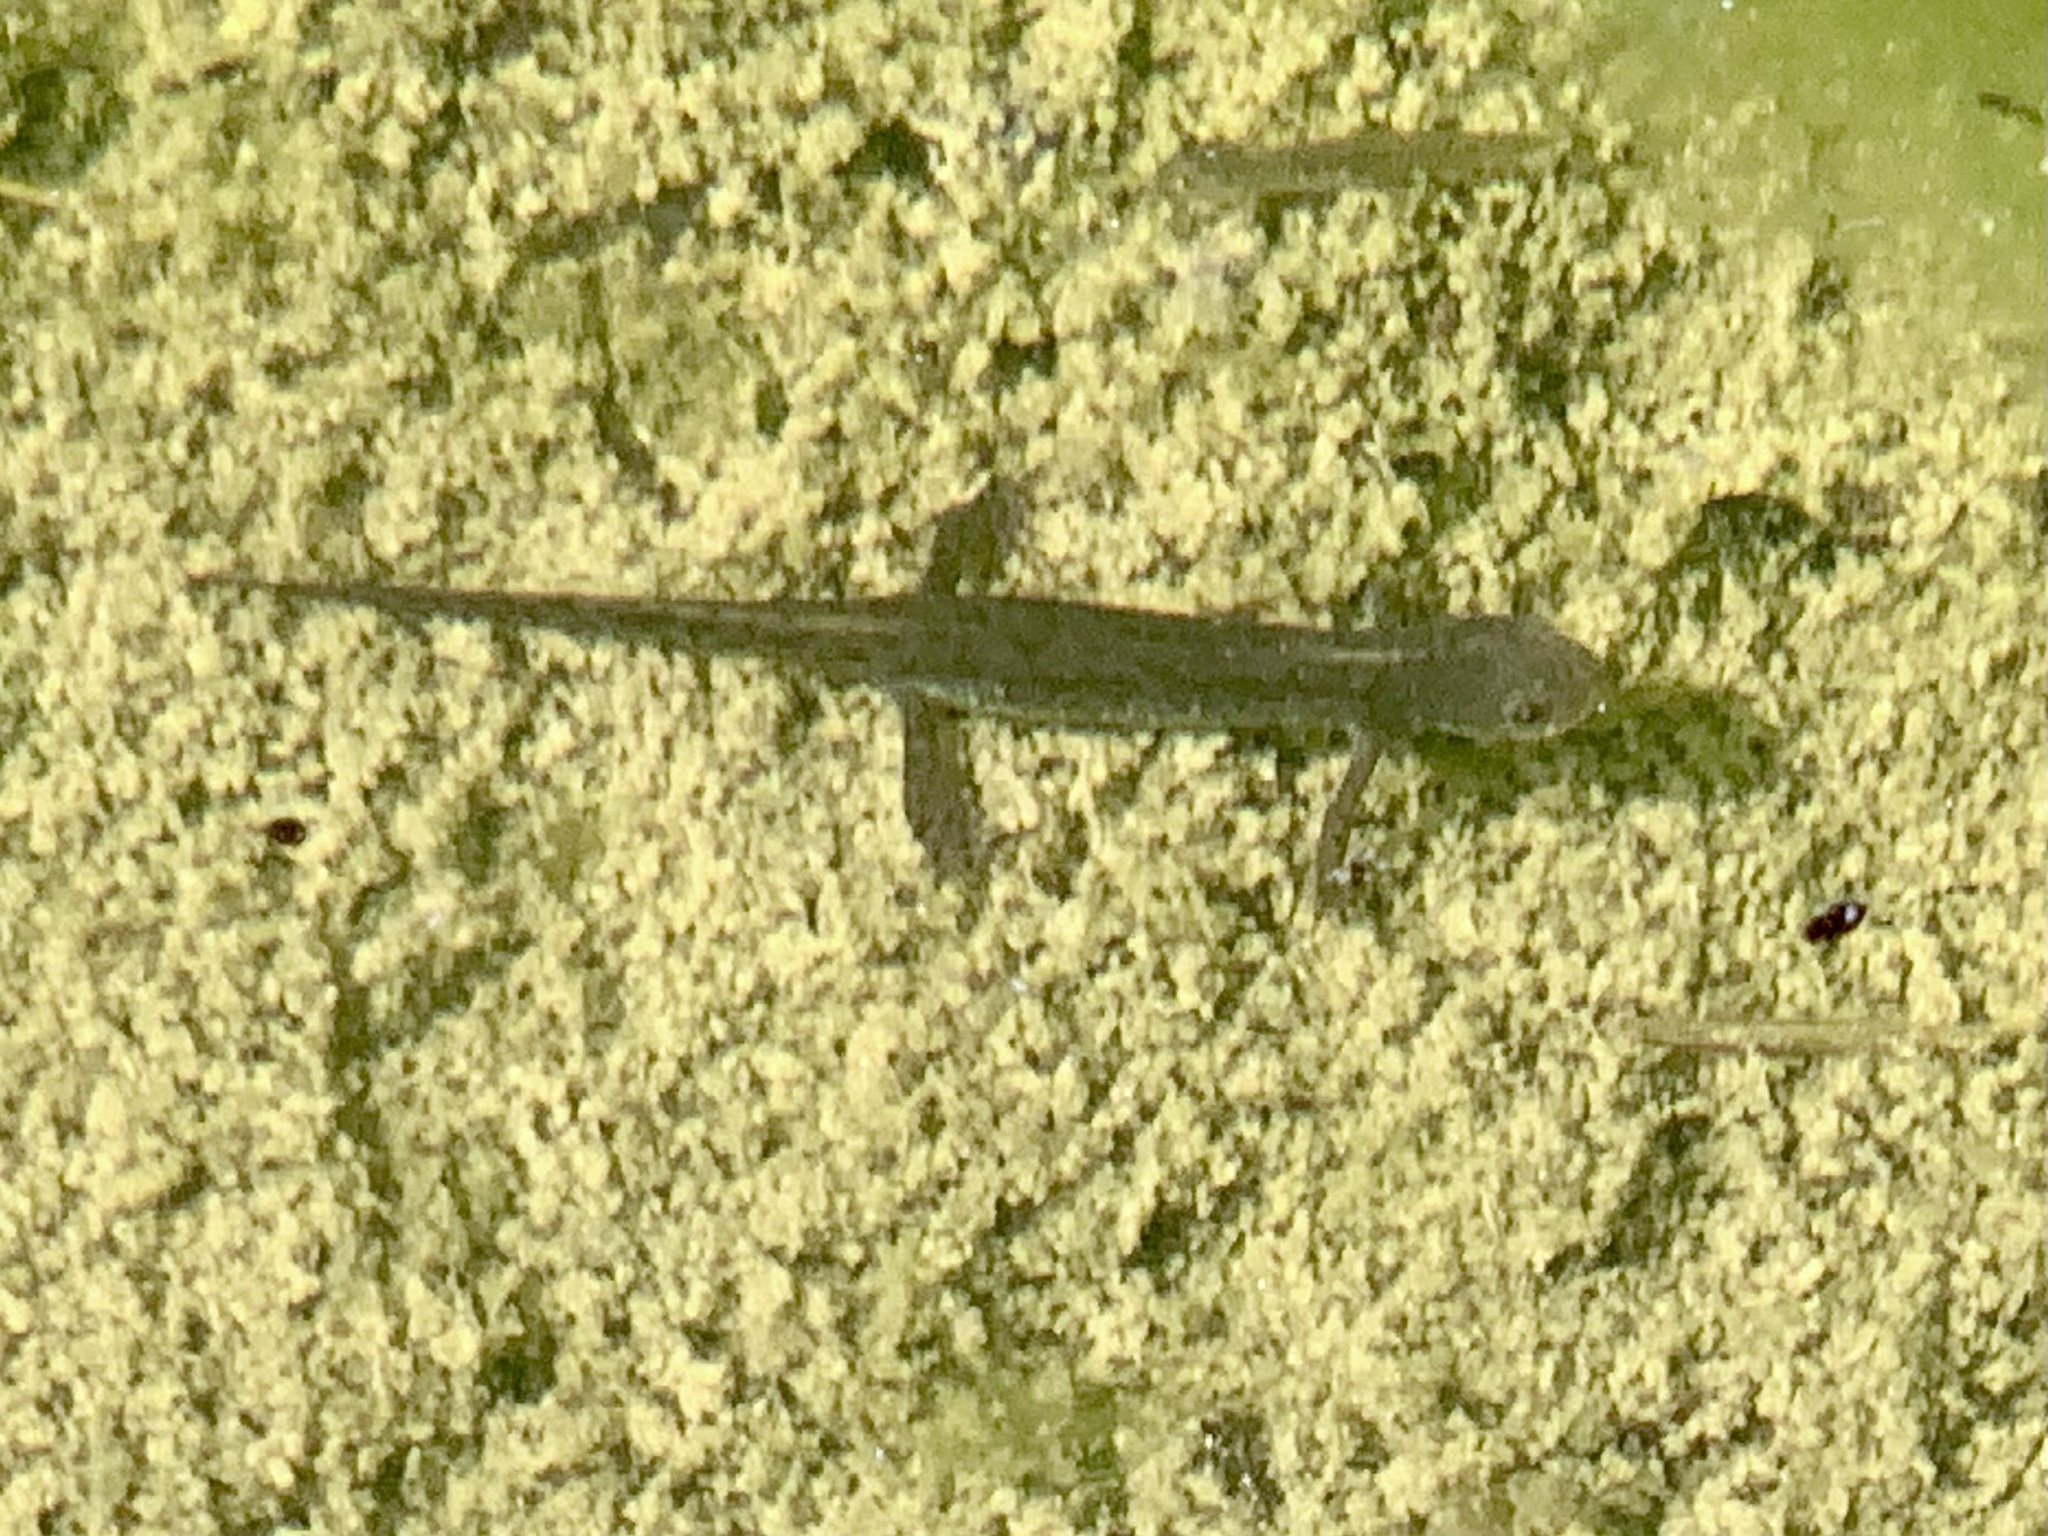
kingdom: Animalia
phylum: Chordata
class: Amphibia
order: Caudata
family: Salamandridae
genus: Ichthyosaura
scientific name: Ichthyosaura alpestris
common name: Alpine newt
